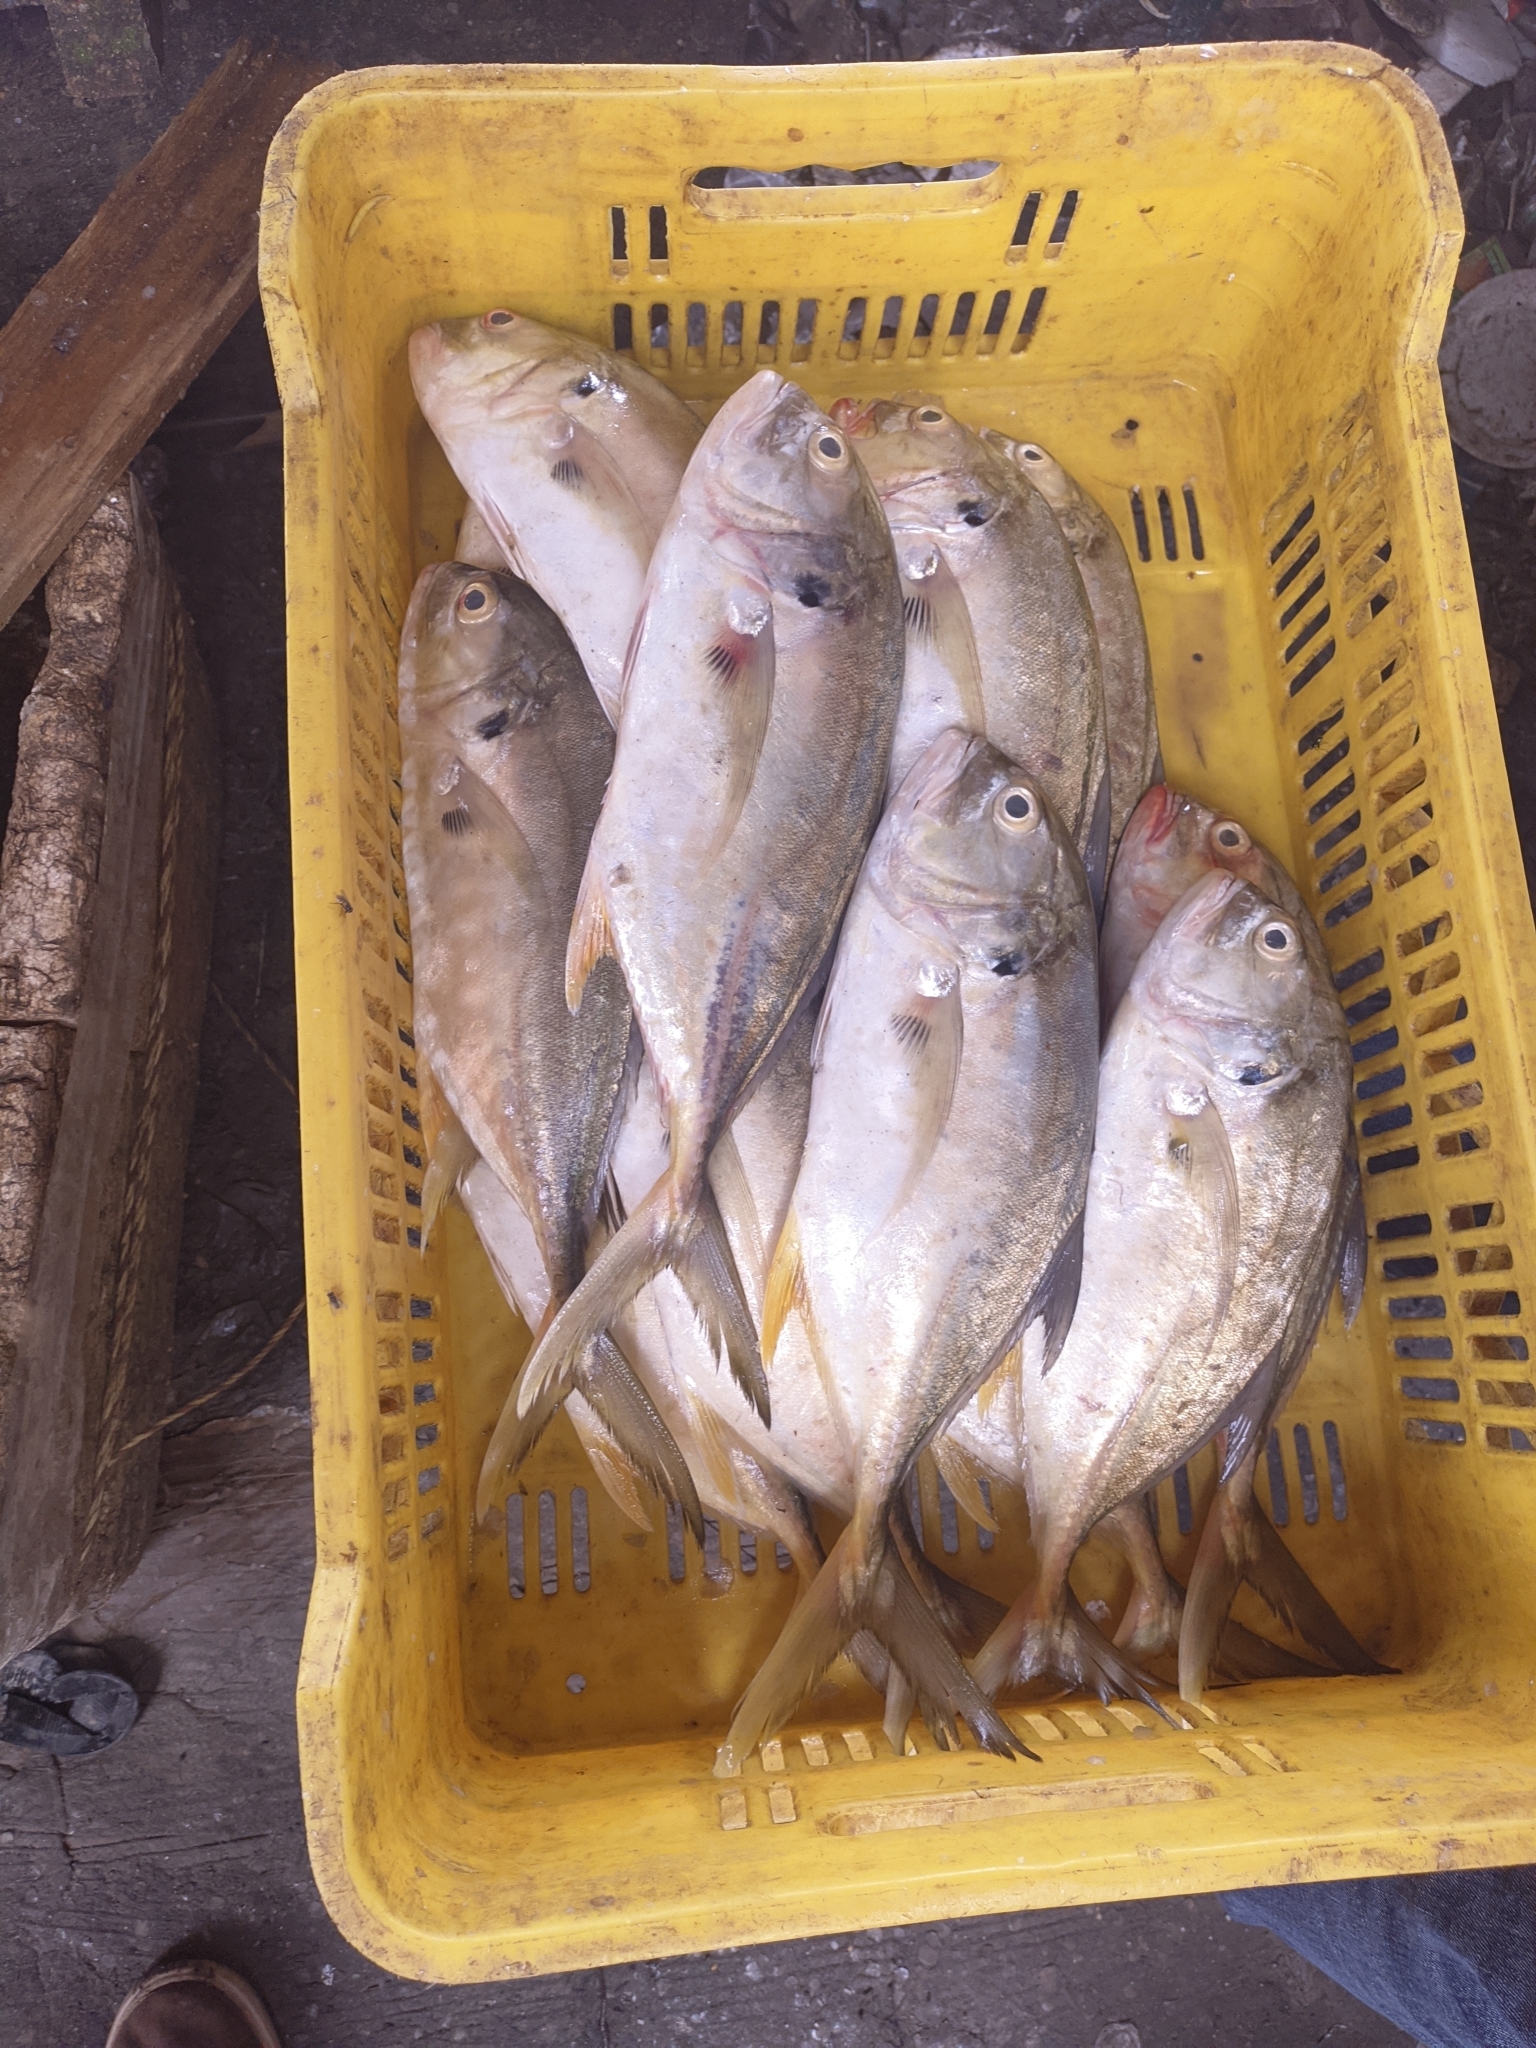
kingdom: Animalia
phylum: Chordata
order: Perciformes
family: Carangidae
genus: Caranx
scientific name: Caranx hippos
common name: Common jack
